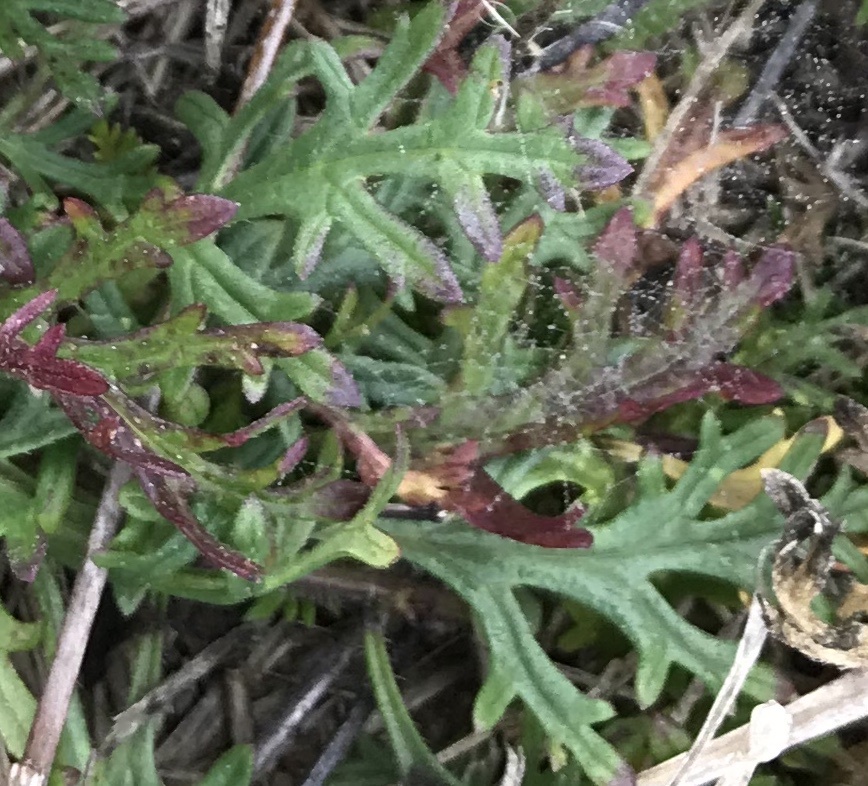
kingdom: Plantae
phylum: Tracheophyta
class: Magnoliopsida
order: Lamiales
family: Verbenaceae
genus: Verbena
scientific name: Verbena bipinnatifida
